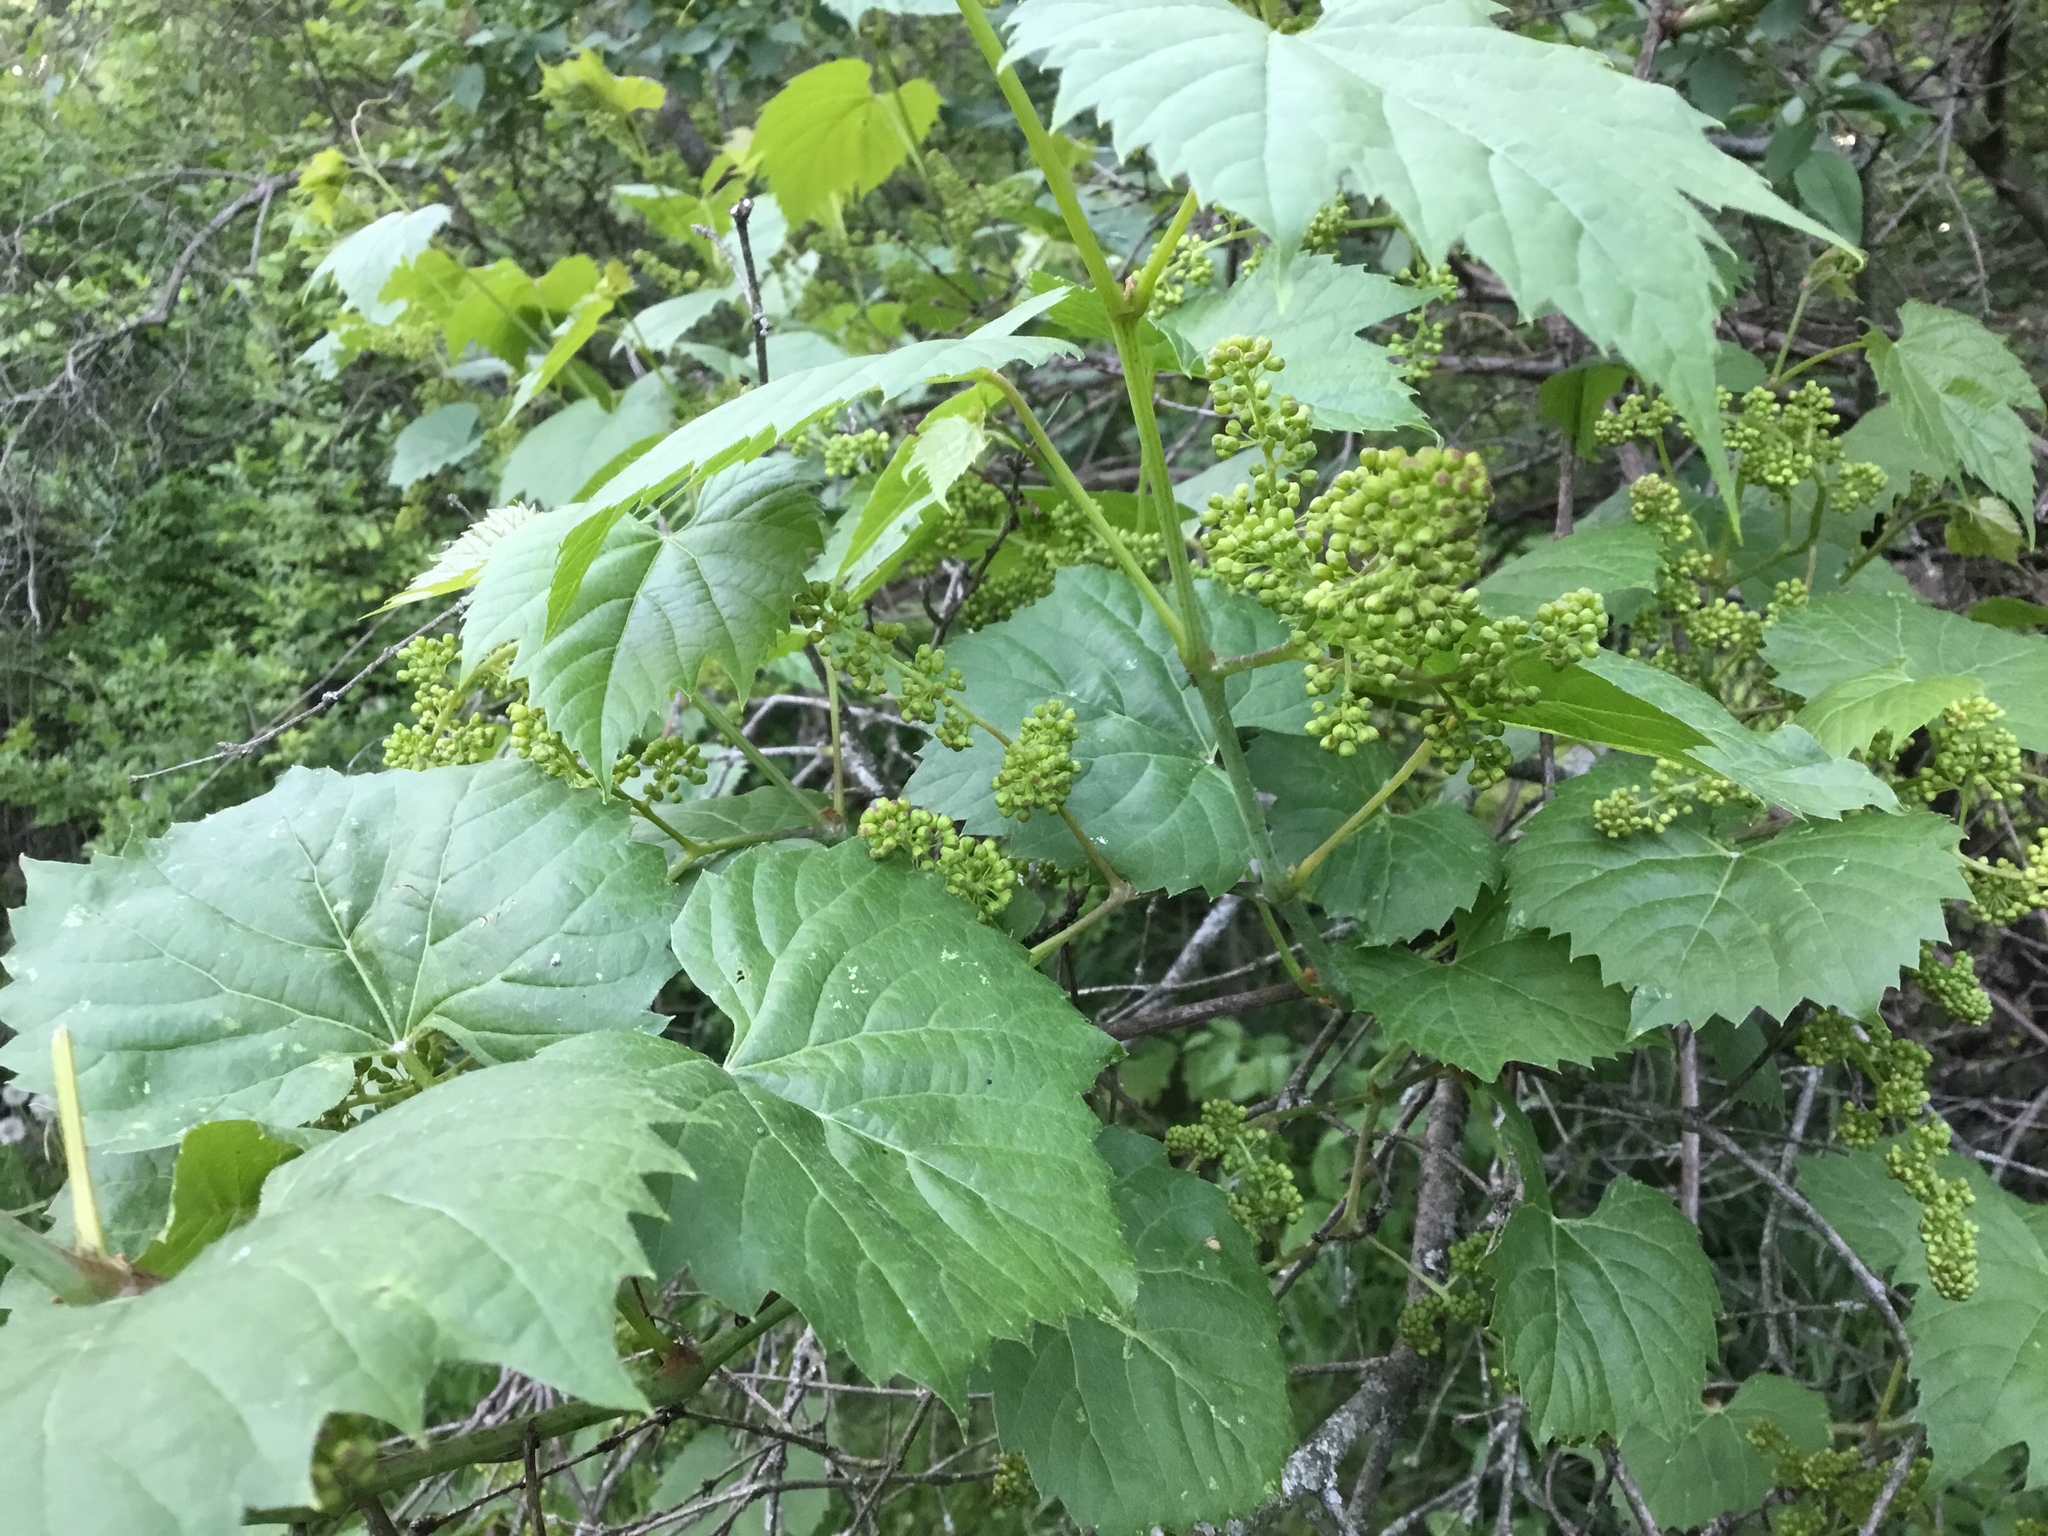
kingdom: Plantae
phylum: Tracheophyta
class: Magnoliopsida
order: Vitales
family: Vitaceae
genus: Vitis
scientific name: Vitis riparia
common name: Frost grape
